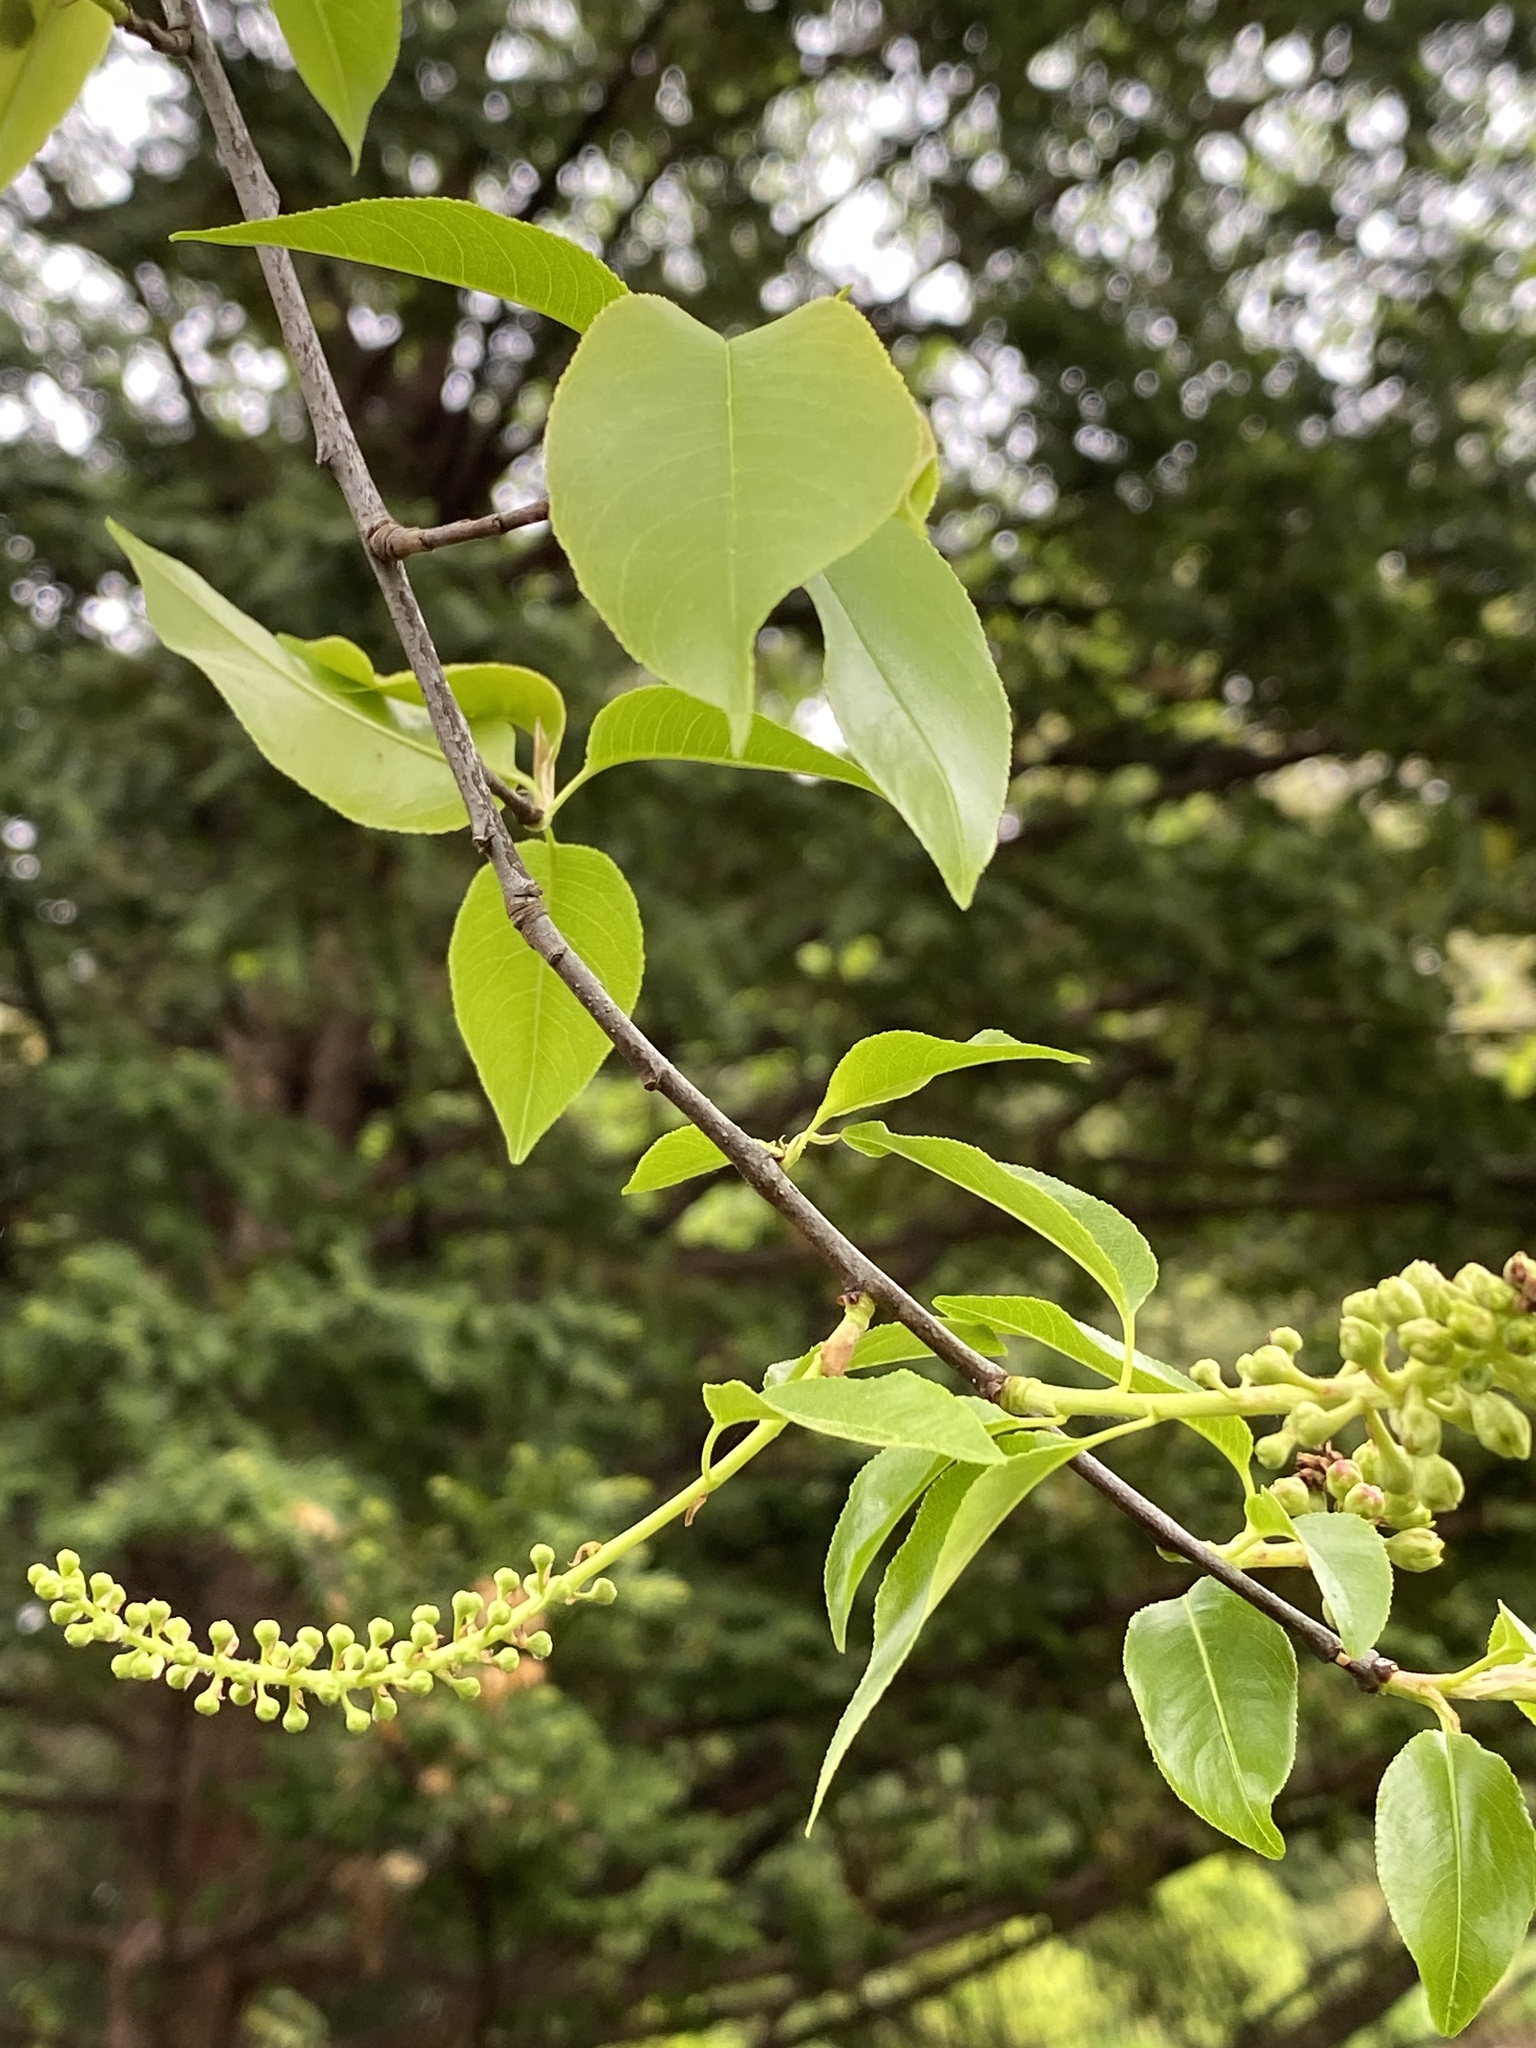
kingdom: Plantae
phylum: Tracheophyta
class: Magnoliopsida
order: Rosales
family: Rosaceae
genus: Prunus
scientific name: Prunus serotina
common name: Black cherry
